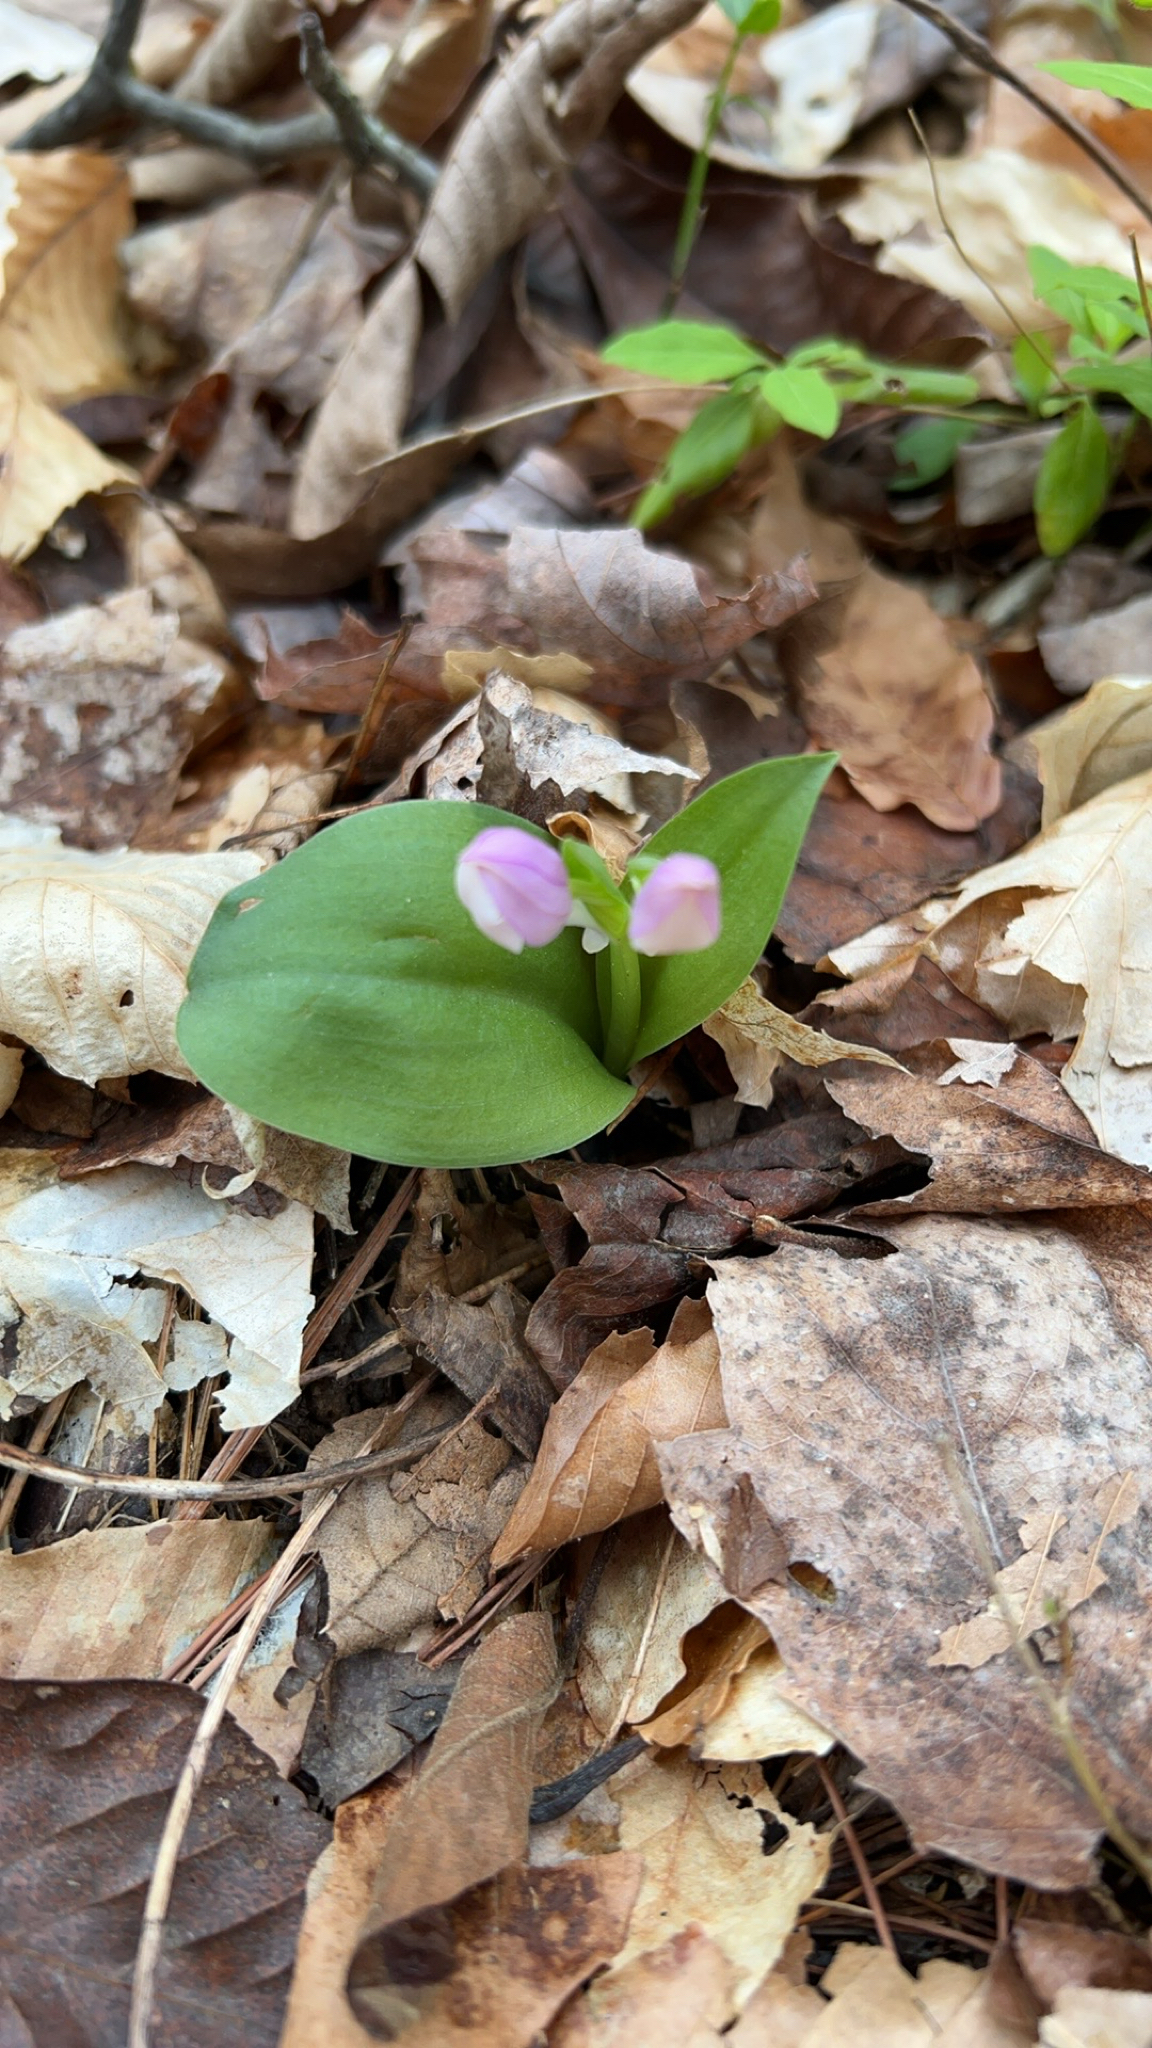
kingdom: Plantae
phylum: Tracheophyta
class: Liliopsida
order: Asparagales
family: Orchidaceae
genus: Galearis
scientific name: Galearis spectabilis
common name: Purple-hooded orchis
